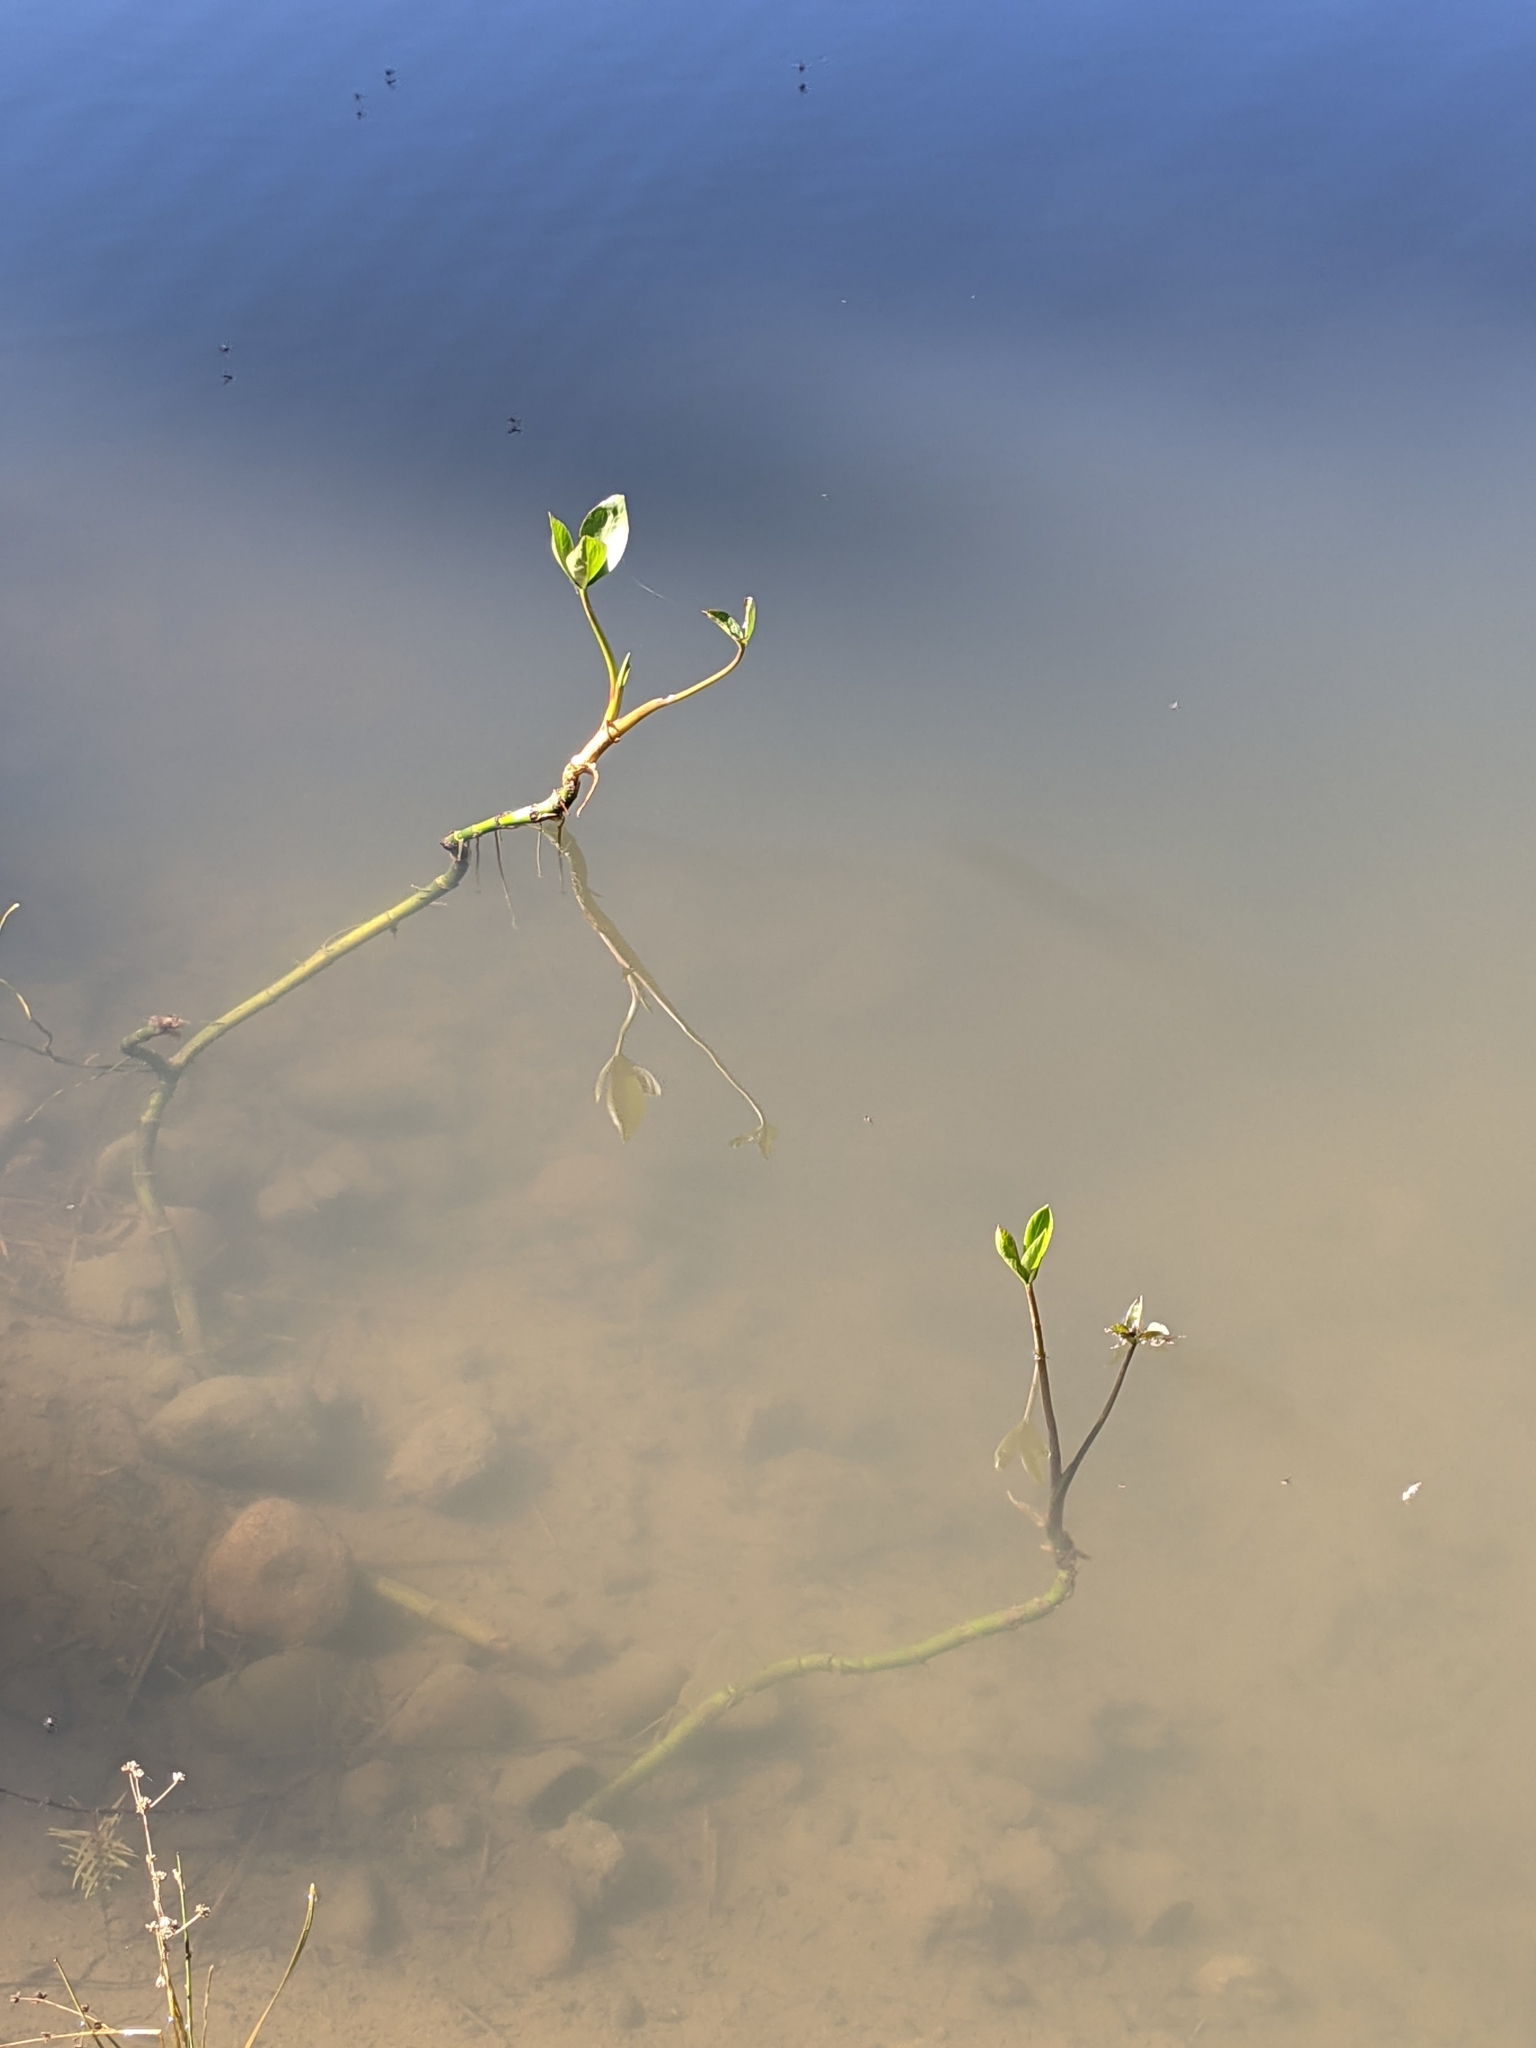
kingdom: Plantae
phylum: Tracheophyta
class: Magnoliopsida
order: Asterales
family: Menyanthaceae
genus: Menyanthes
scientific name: Menyanthes trifoliata
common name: Bogbean
